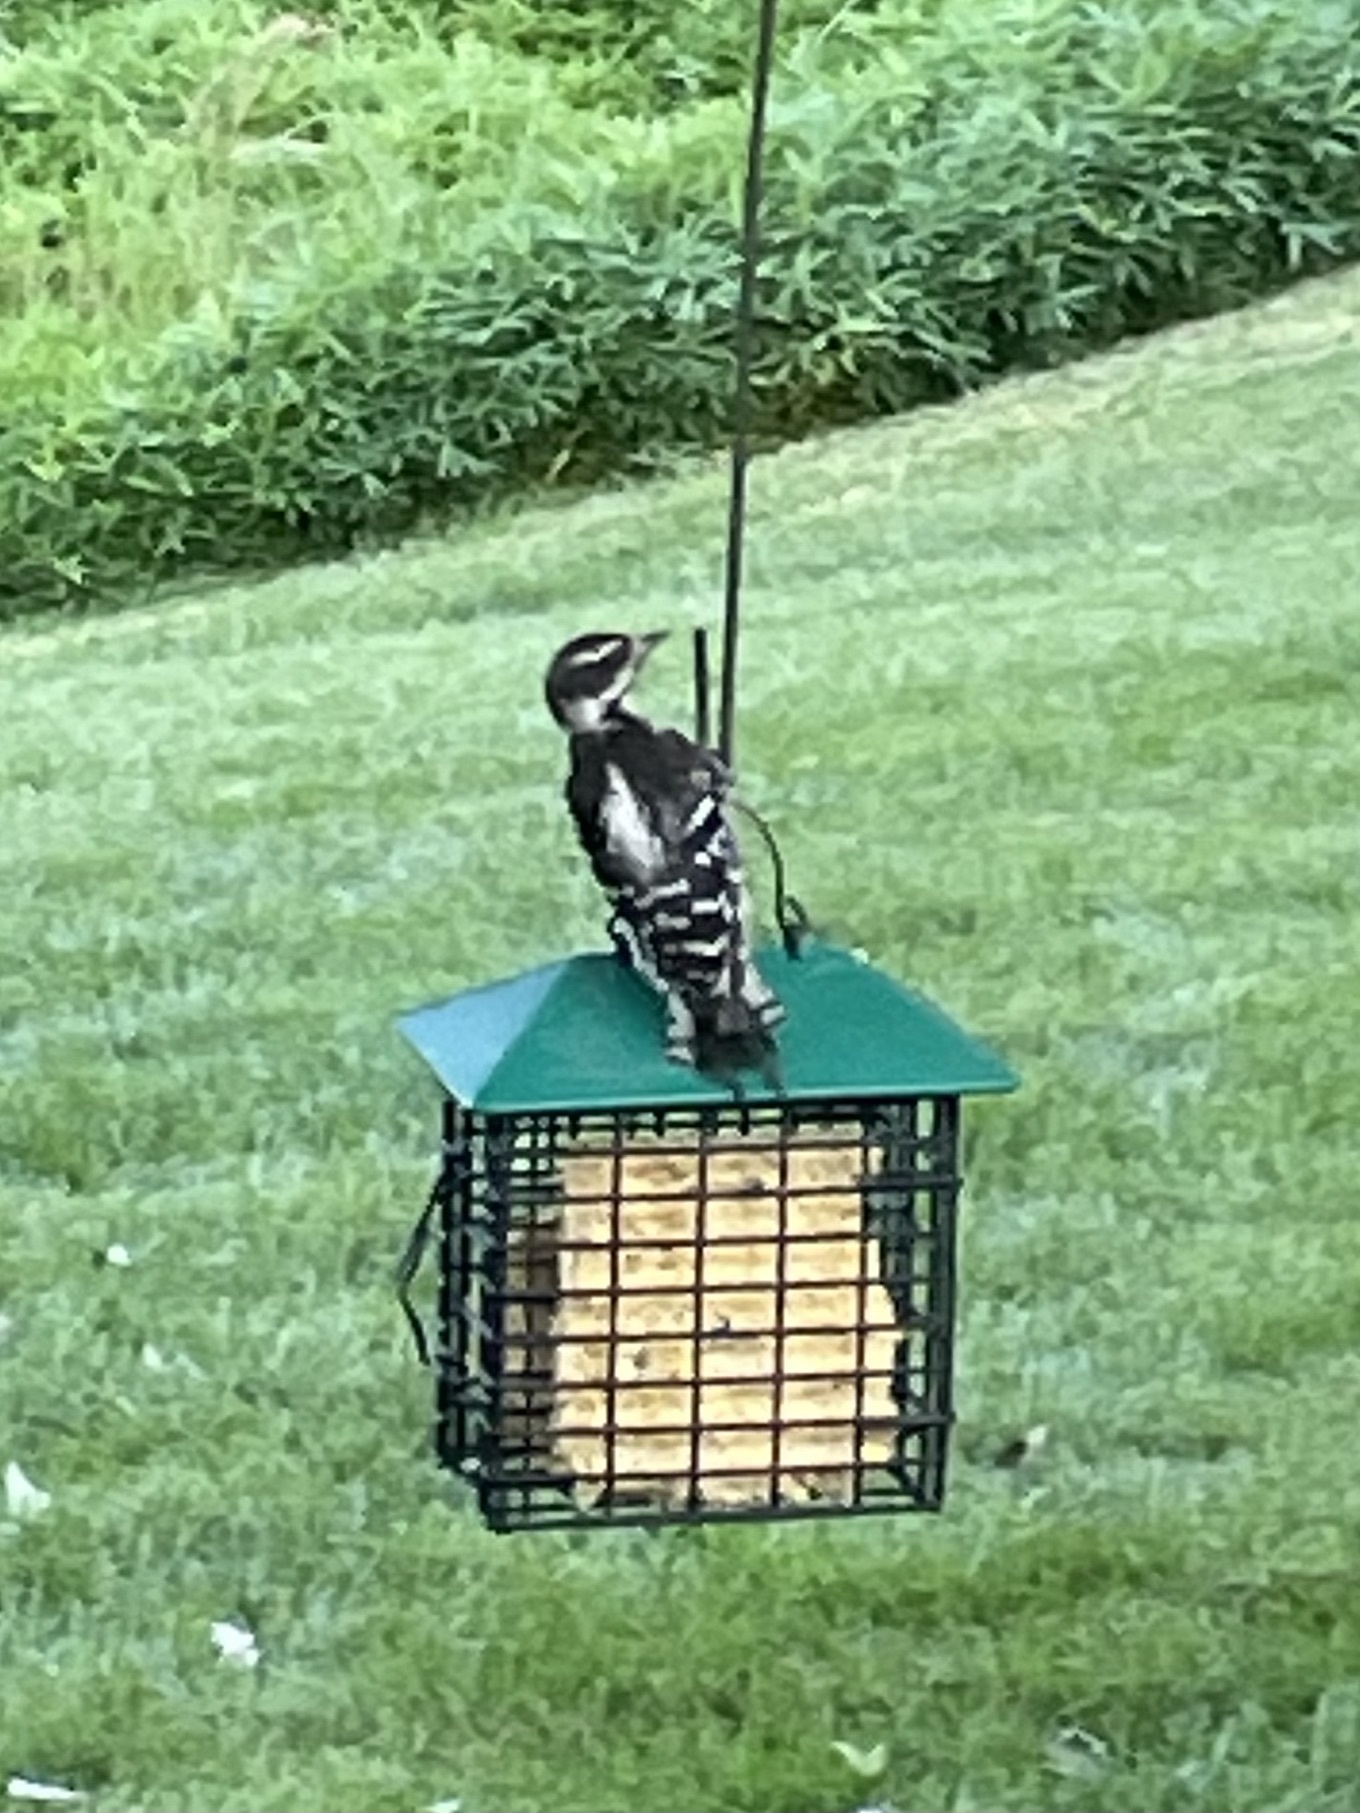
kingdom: Animalia
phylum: Chordata
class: Aves
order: Piciformes
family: Picidae
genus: Dryobates
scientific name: Dryobates pubescens
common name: Downy woodpecker
